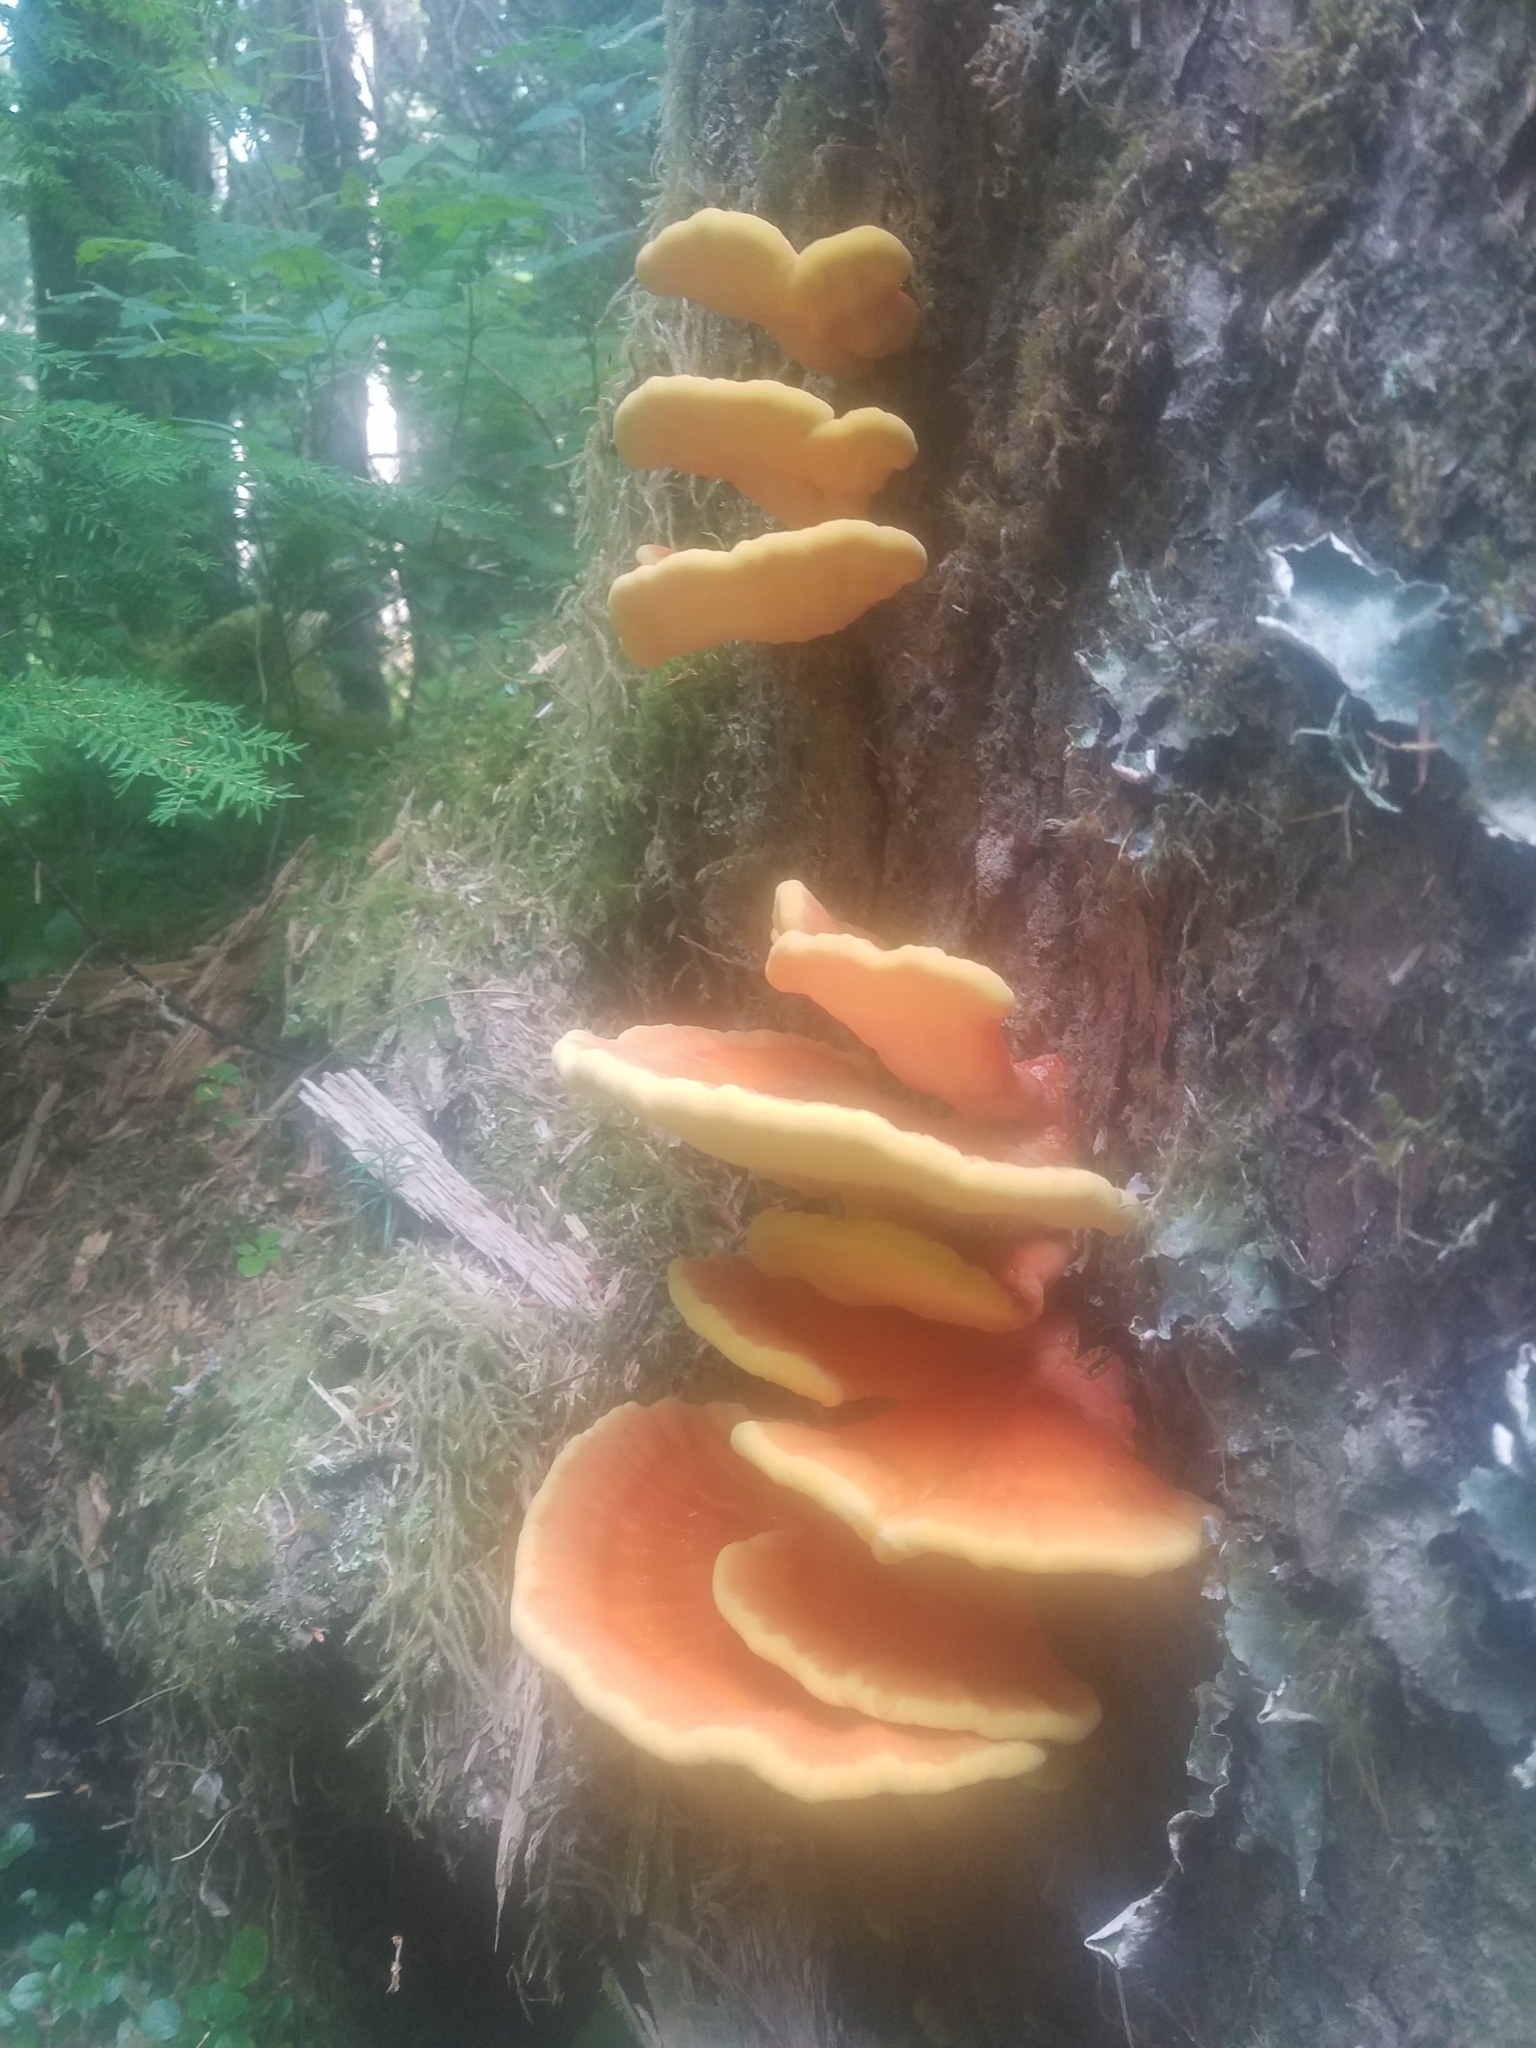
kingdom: Fungi
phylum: Basidiomycota
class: Agaricomycetes
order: Polyporales
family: Laetiporaceae
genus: Laetiporus
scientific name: Laetiporus conifericola
